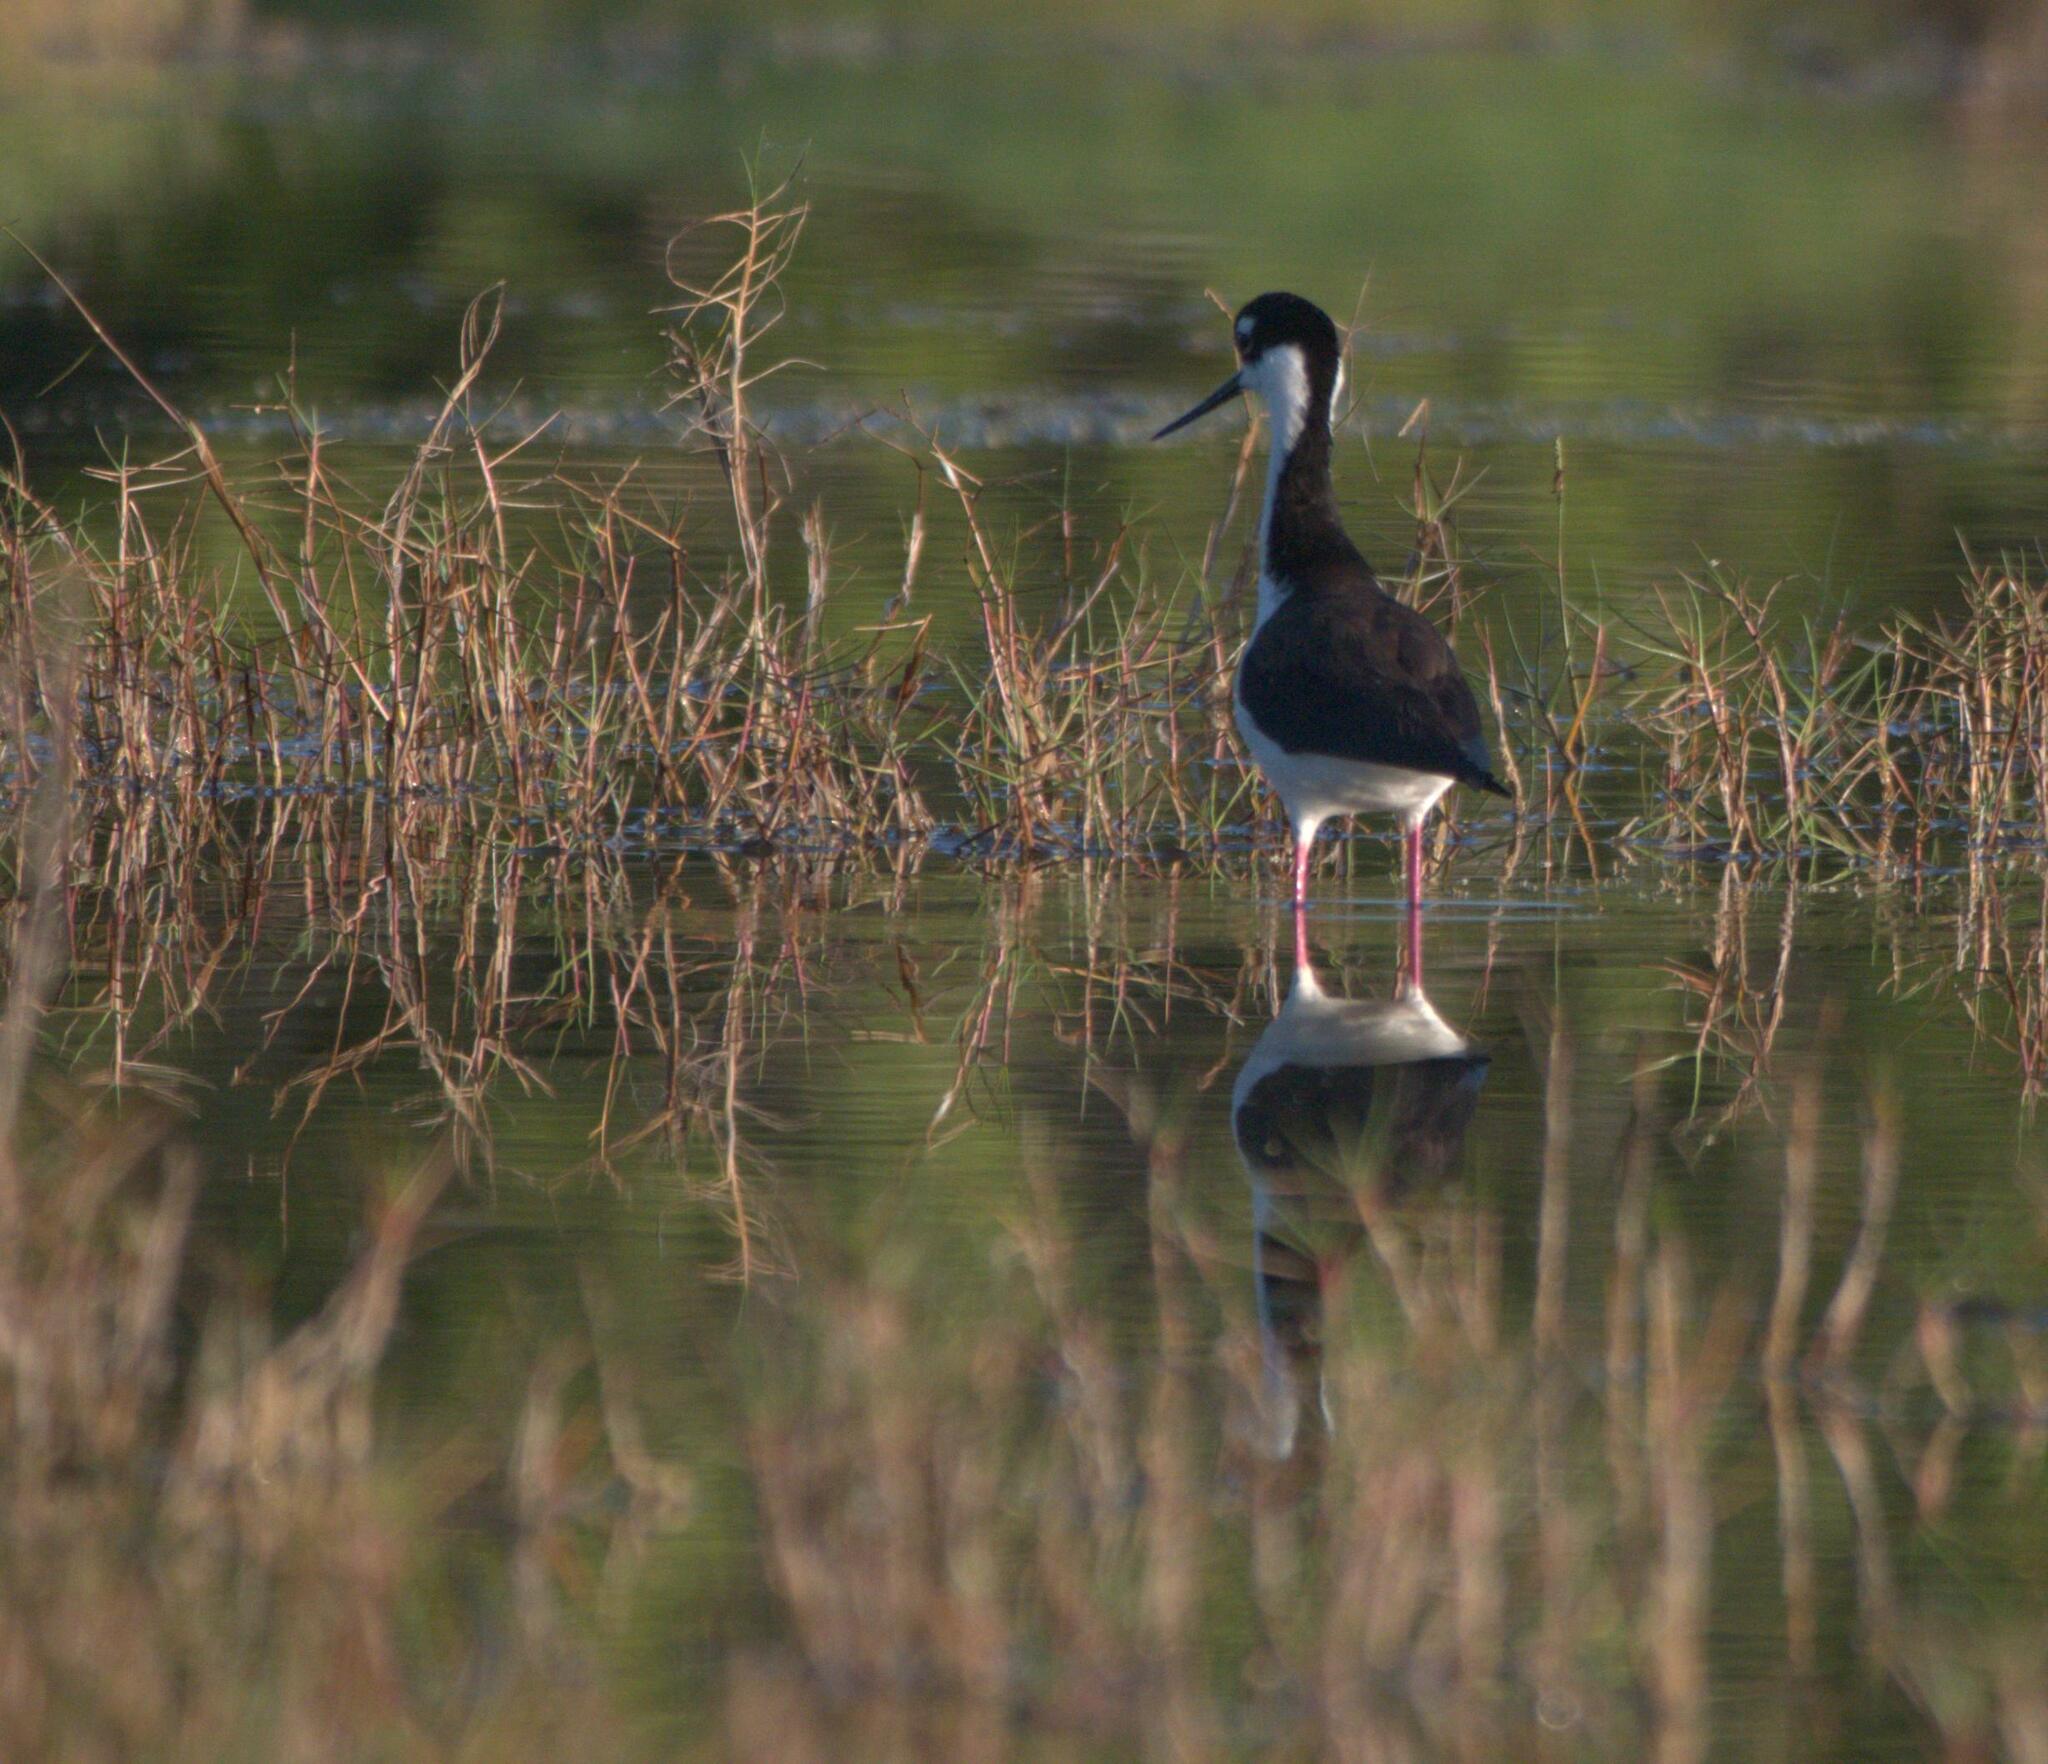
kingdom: Animalia
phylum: Chordata
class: Aves
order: Charadriiformes
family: Recurvirostridae
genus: Himantopus
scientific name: Himantopus mexicanus
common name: Black-necked stilt
